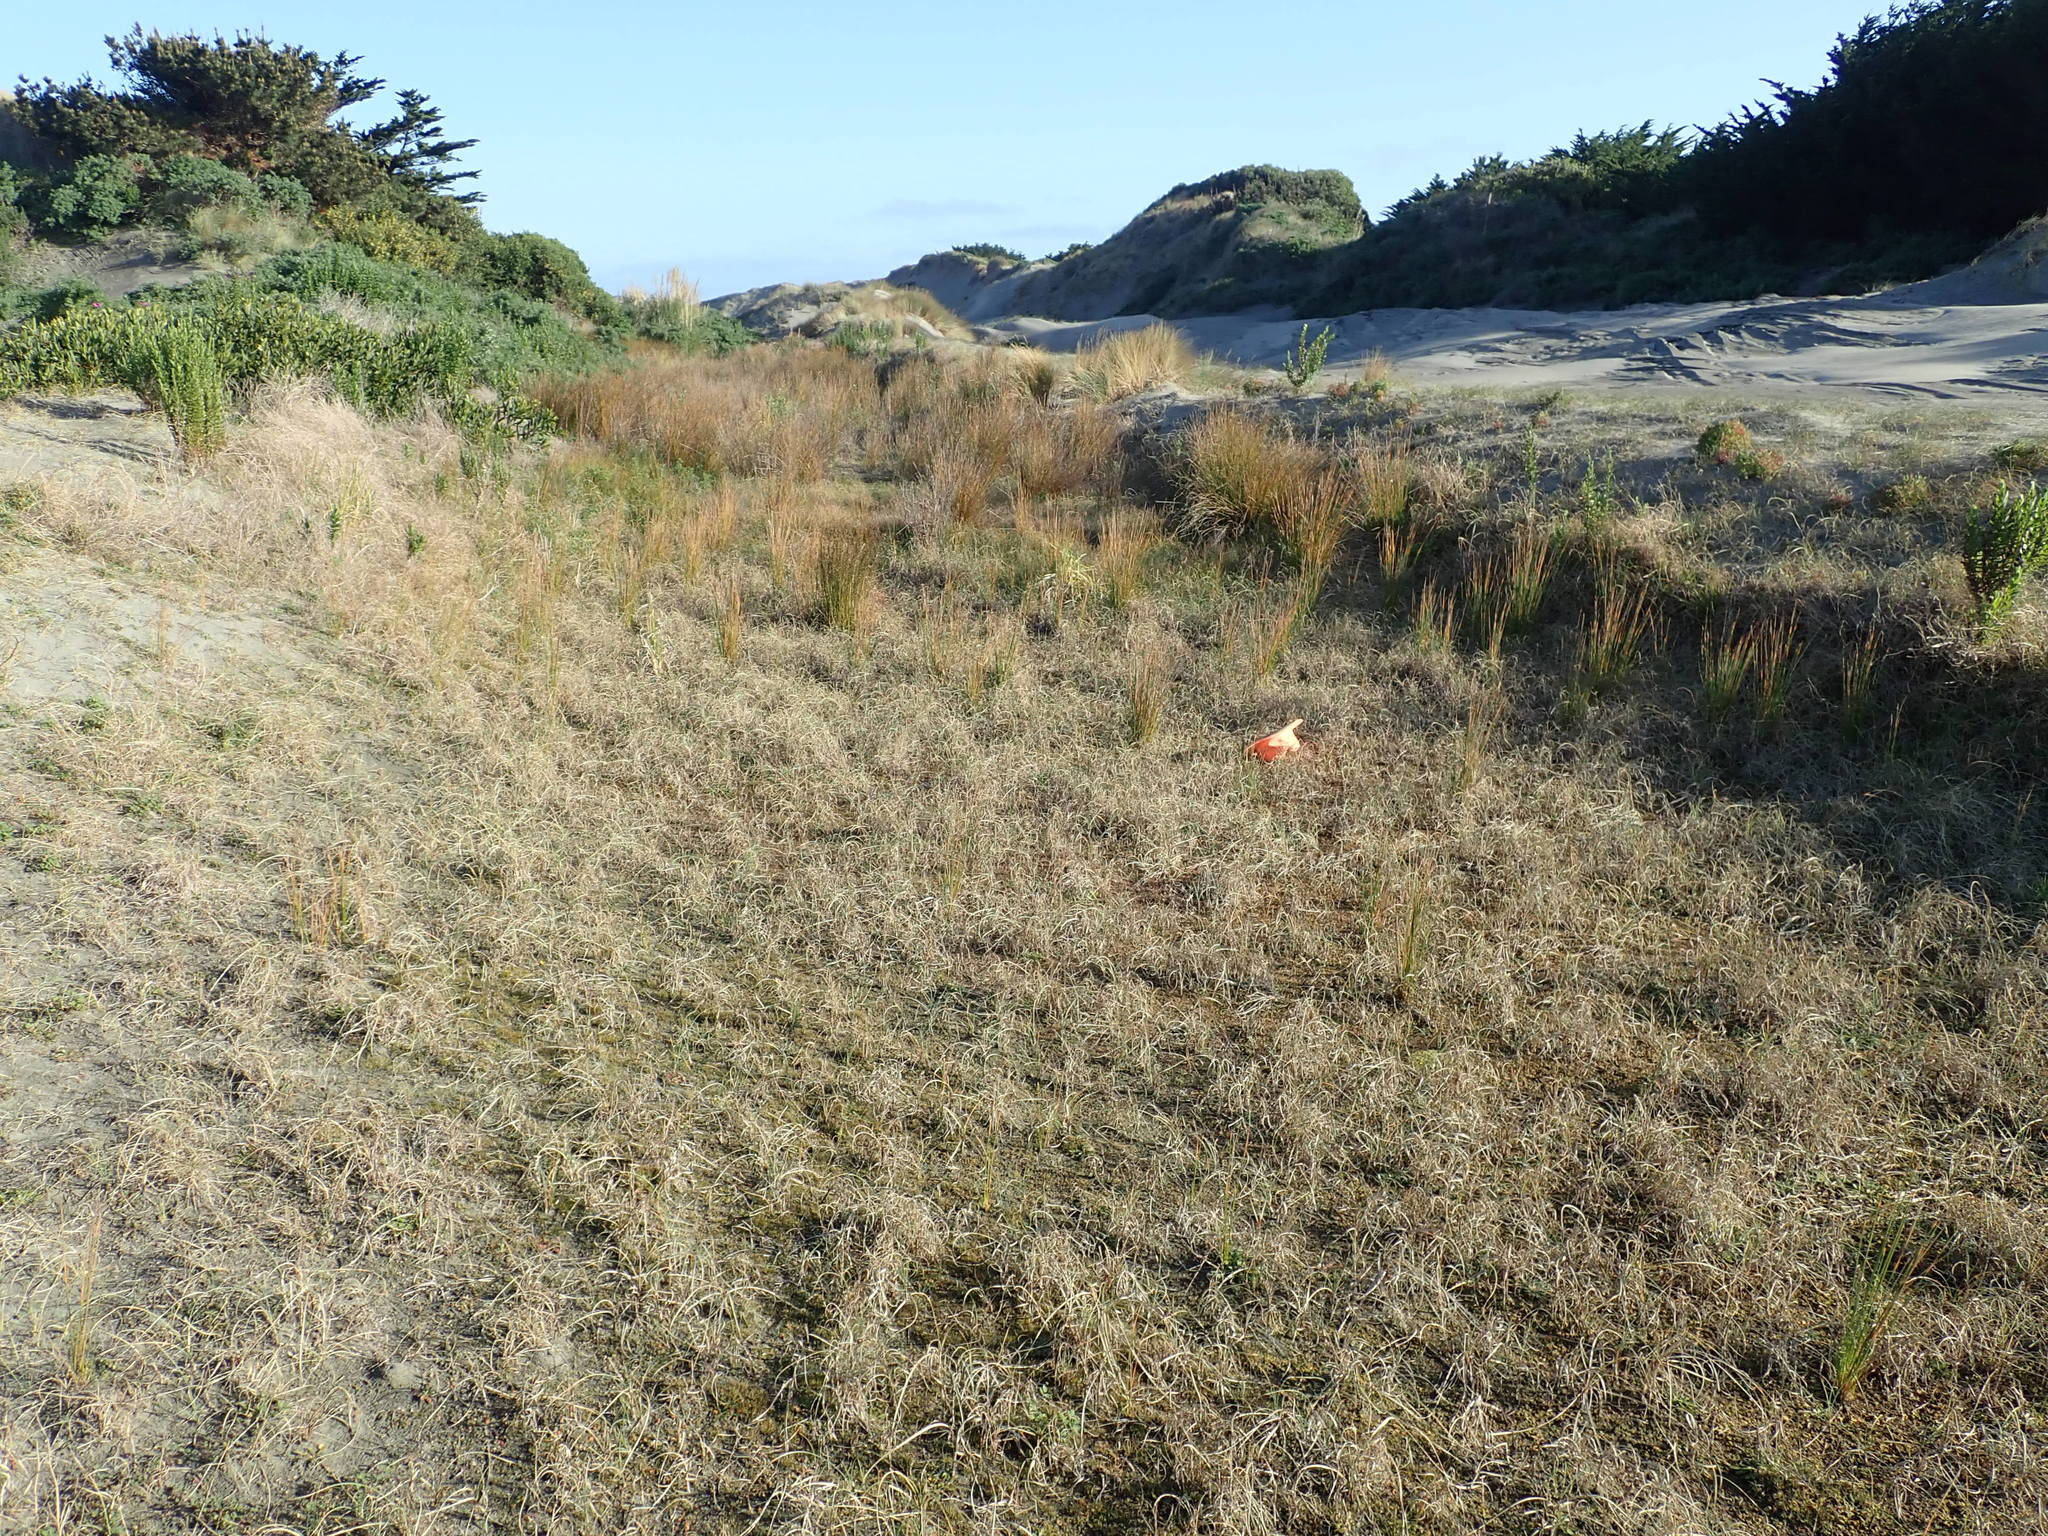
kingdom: Plantae
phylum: Tracheophyta
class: Magnoliopsida
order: Saxifragales
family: Haloragaceae
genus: Myriophyllum
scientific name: Myriophyllum votschii
